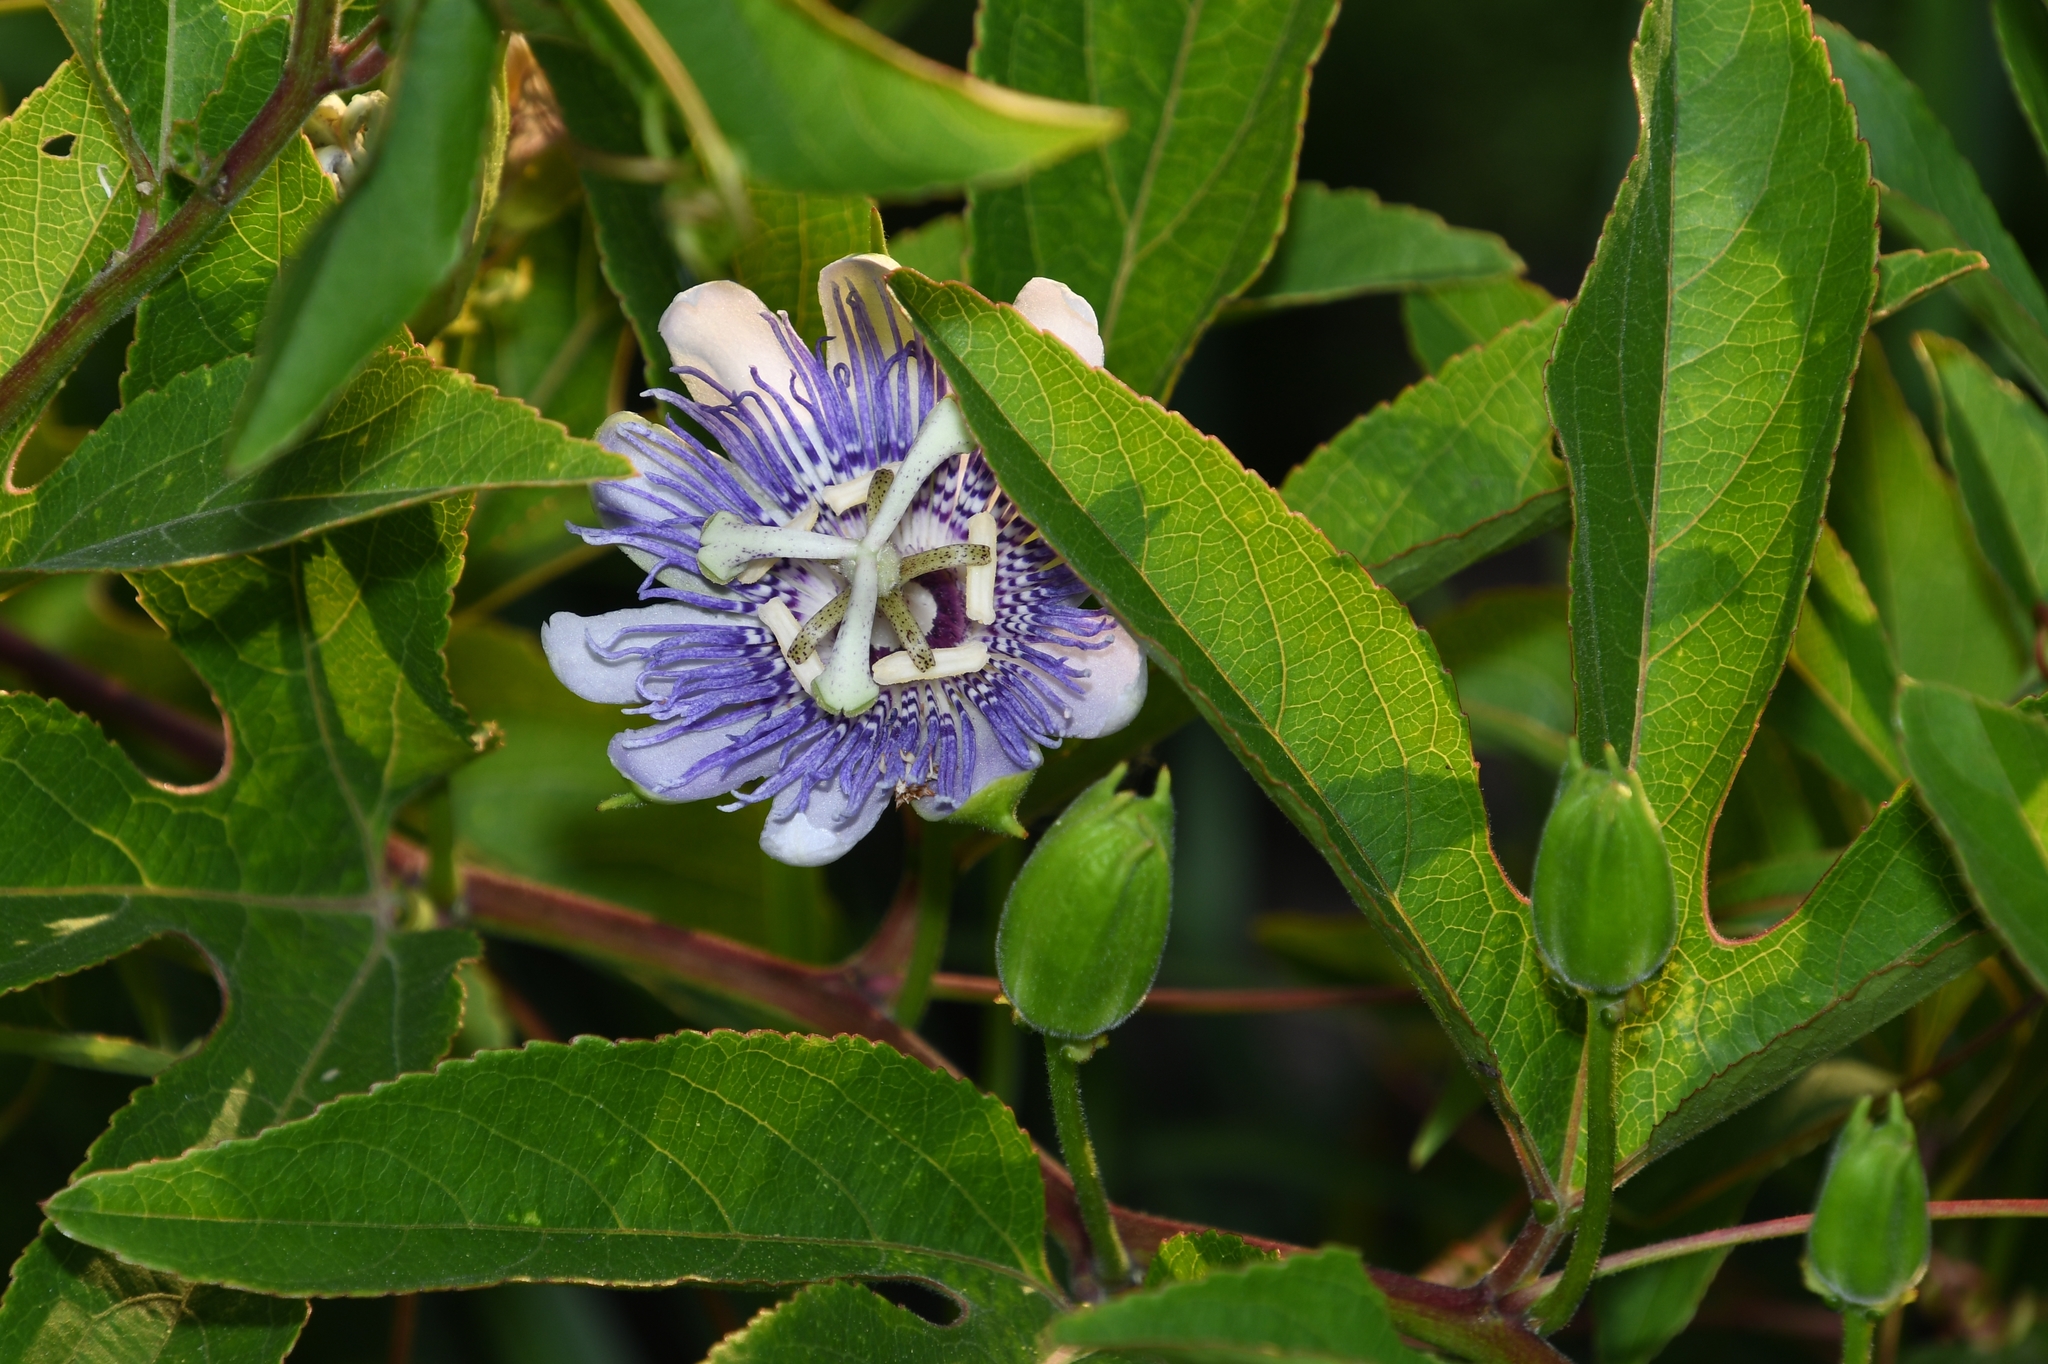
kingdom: Plantae
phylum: Tracheophyta
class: Magnoliopsida
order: Malpighiales
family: Passifloraceae
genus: Passiflora
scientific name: Passiflora incarnata
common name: Apricot-vine
